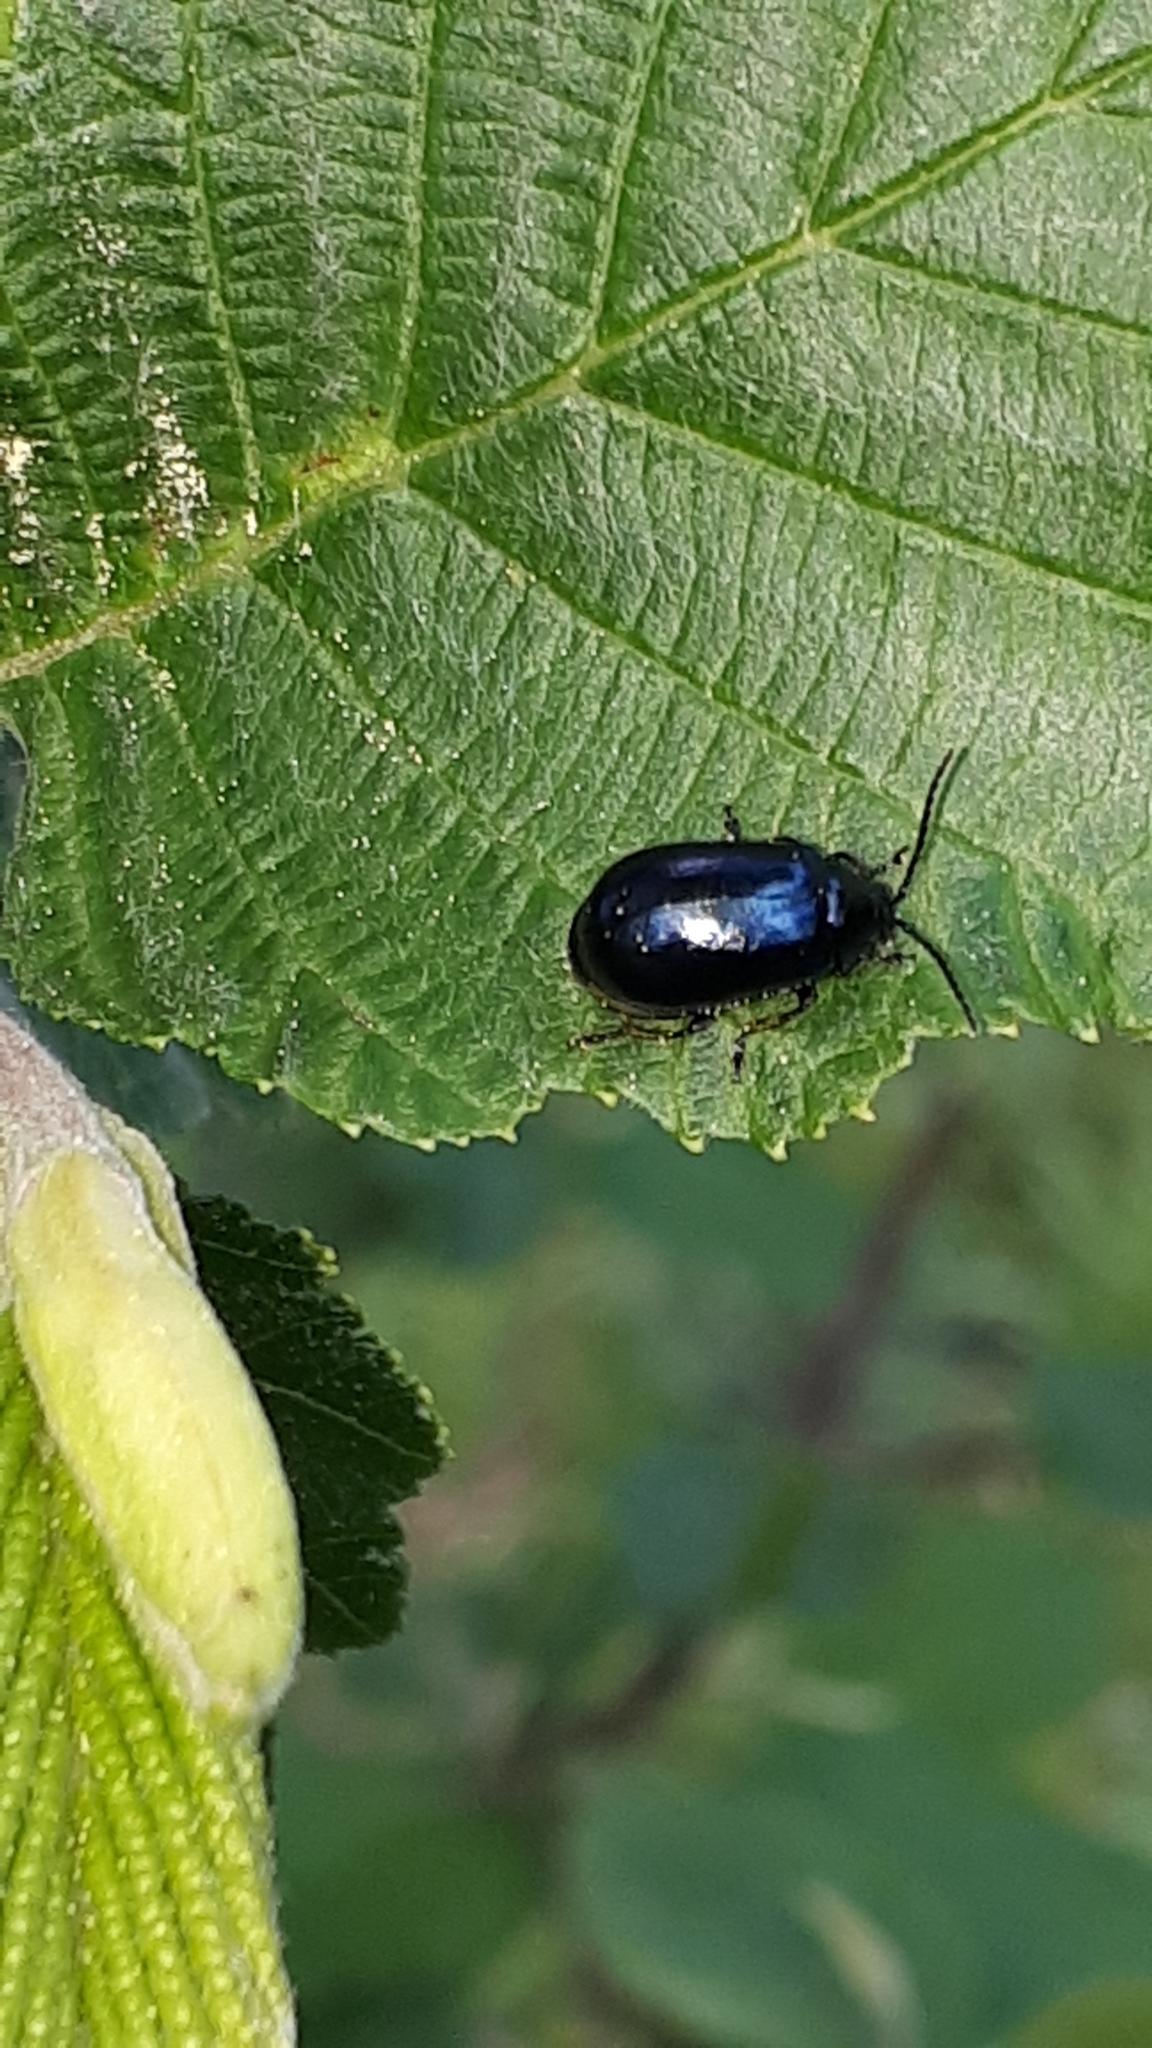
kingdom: Animalia
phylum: Arthropoda
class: Insecta
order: Coleoptera
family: Chrysomelidae
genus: Agelastica
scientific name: Agelastica alni
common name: Alder leaf beetle
